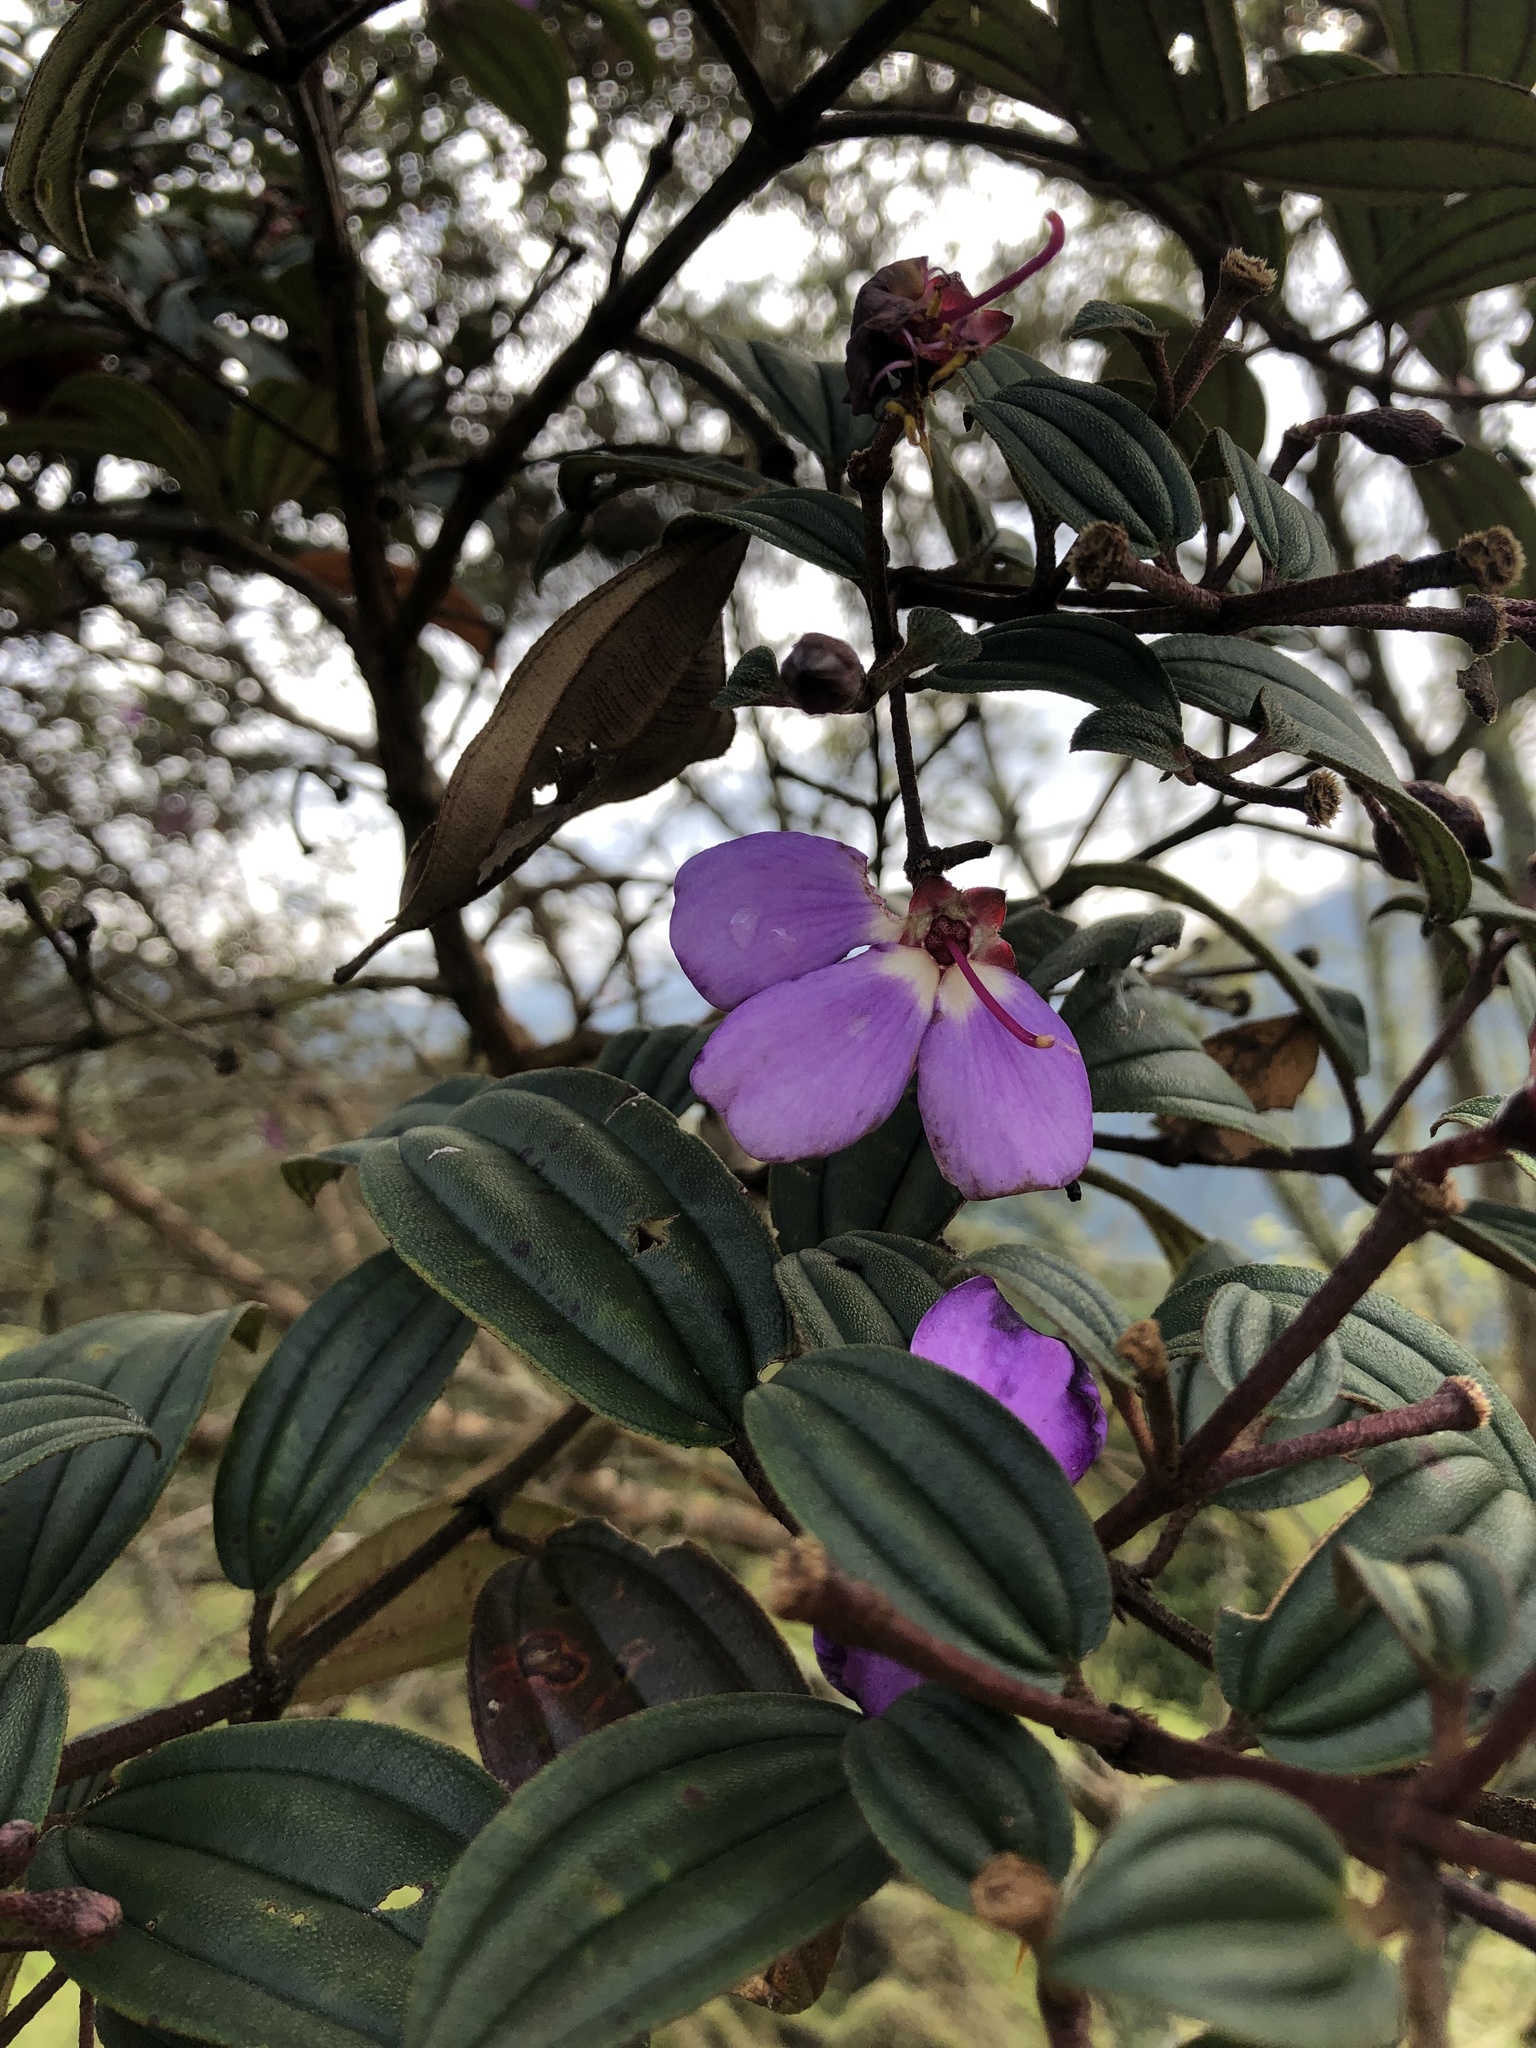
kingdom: Plantae
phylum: Tracheophyta
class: Magnoliopsida
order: Myrtales
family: Melastomataceae
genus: Andesanthus
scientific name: Andesanthus lepidotus
